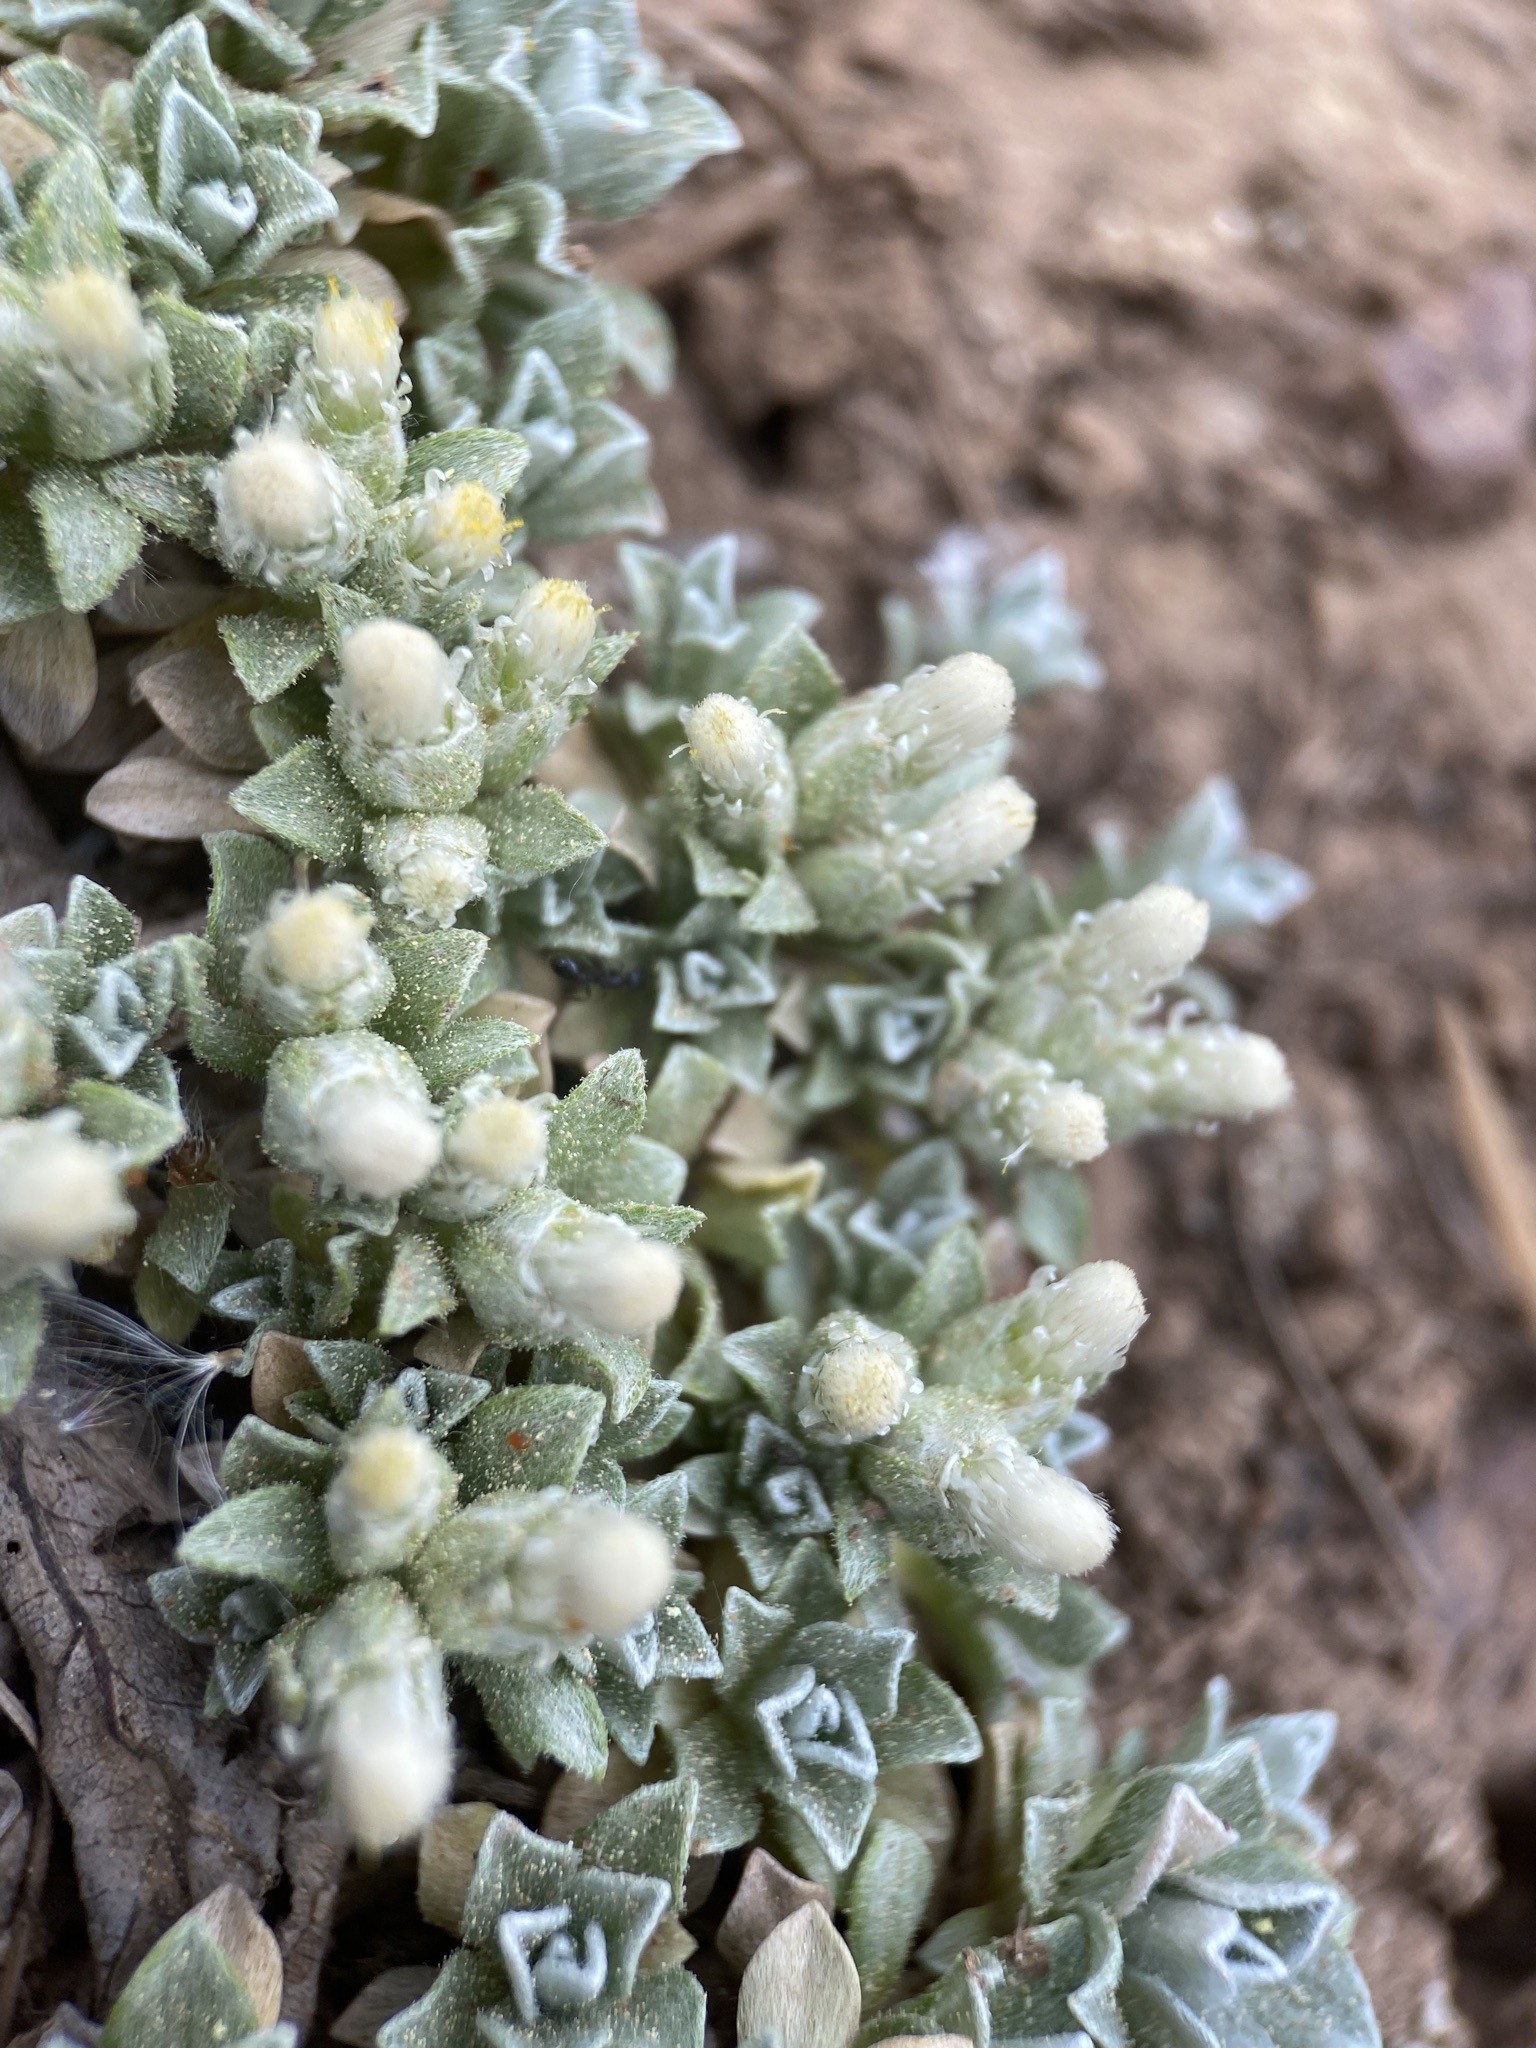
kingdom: Plantae
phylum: Tracheophyta
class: Magnoliopsida
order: Asterales
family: Asteraceae
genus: Antennaria
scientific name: Antennaria rosulata
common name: Woolly pussytoes
